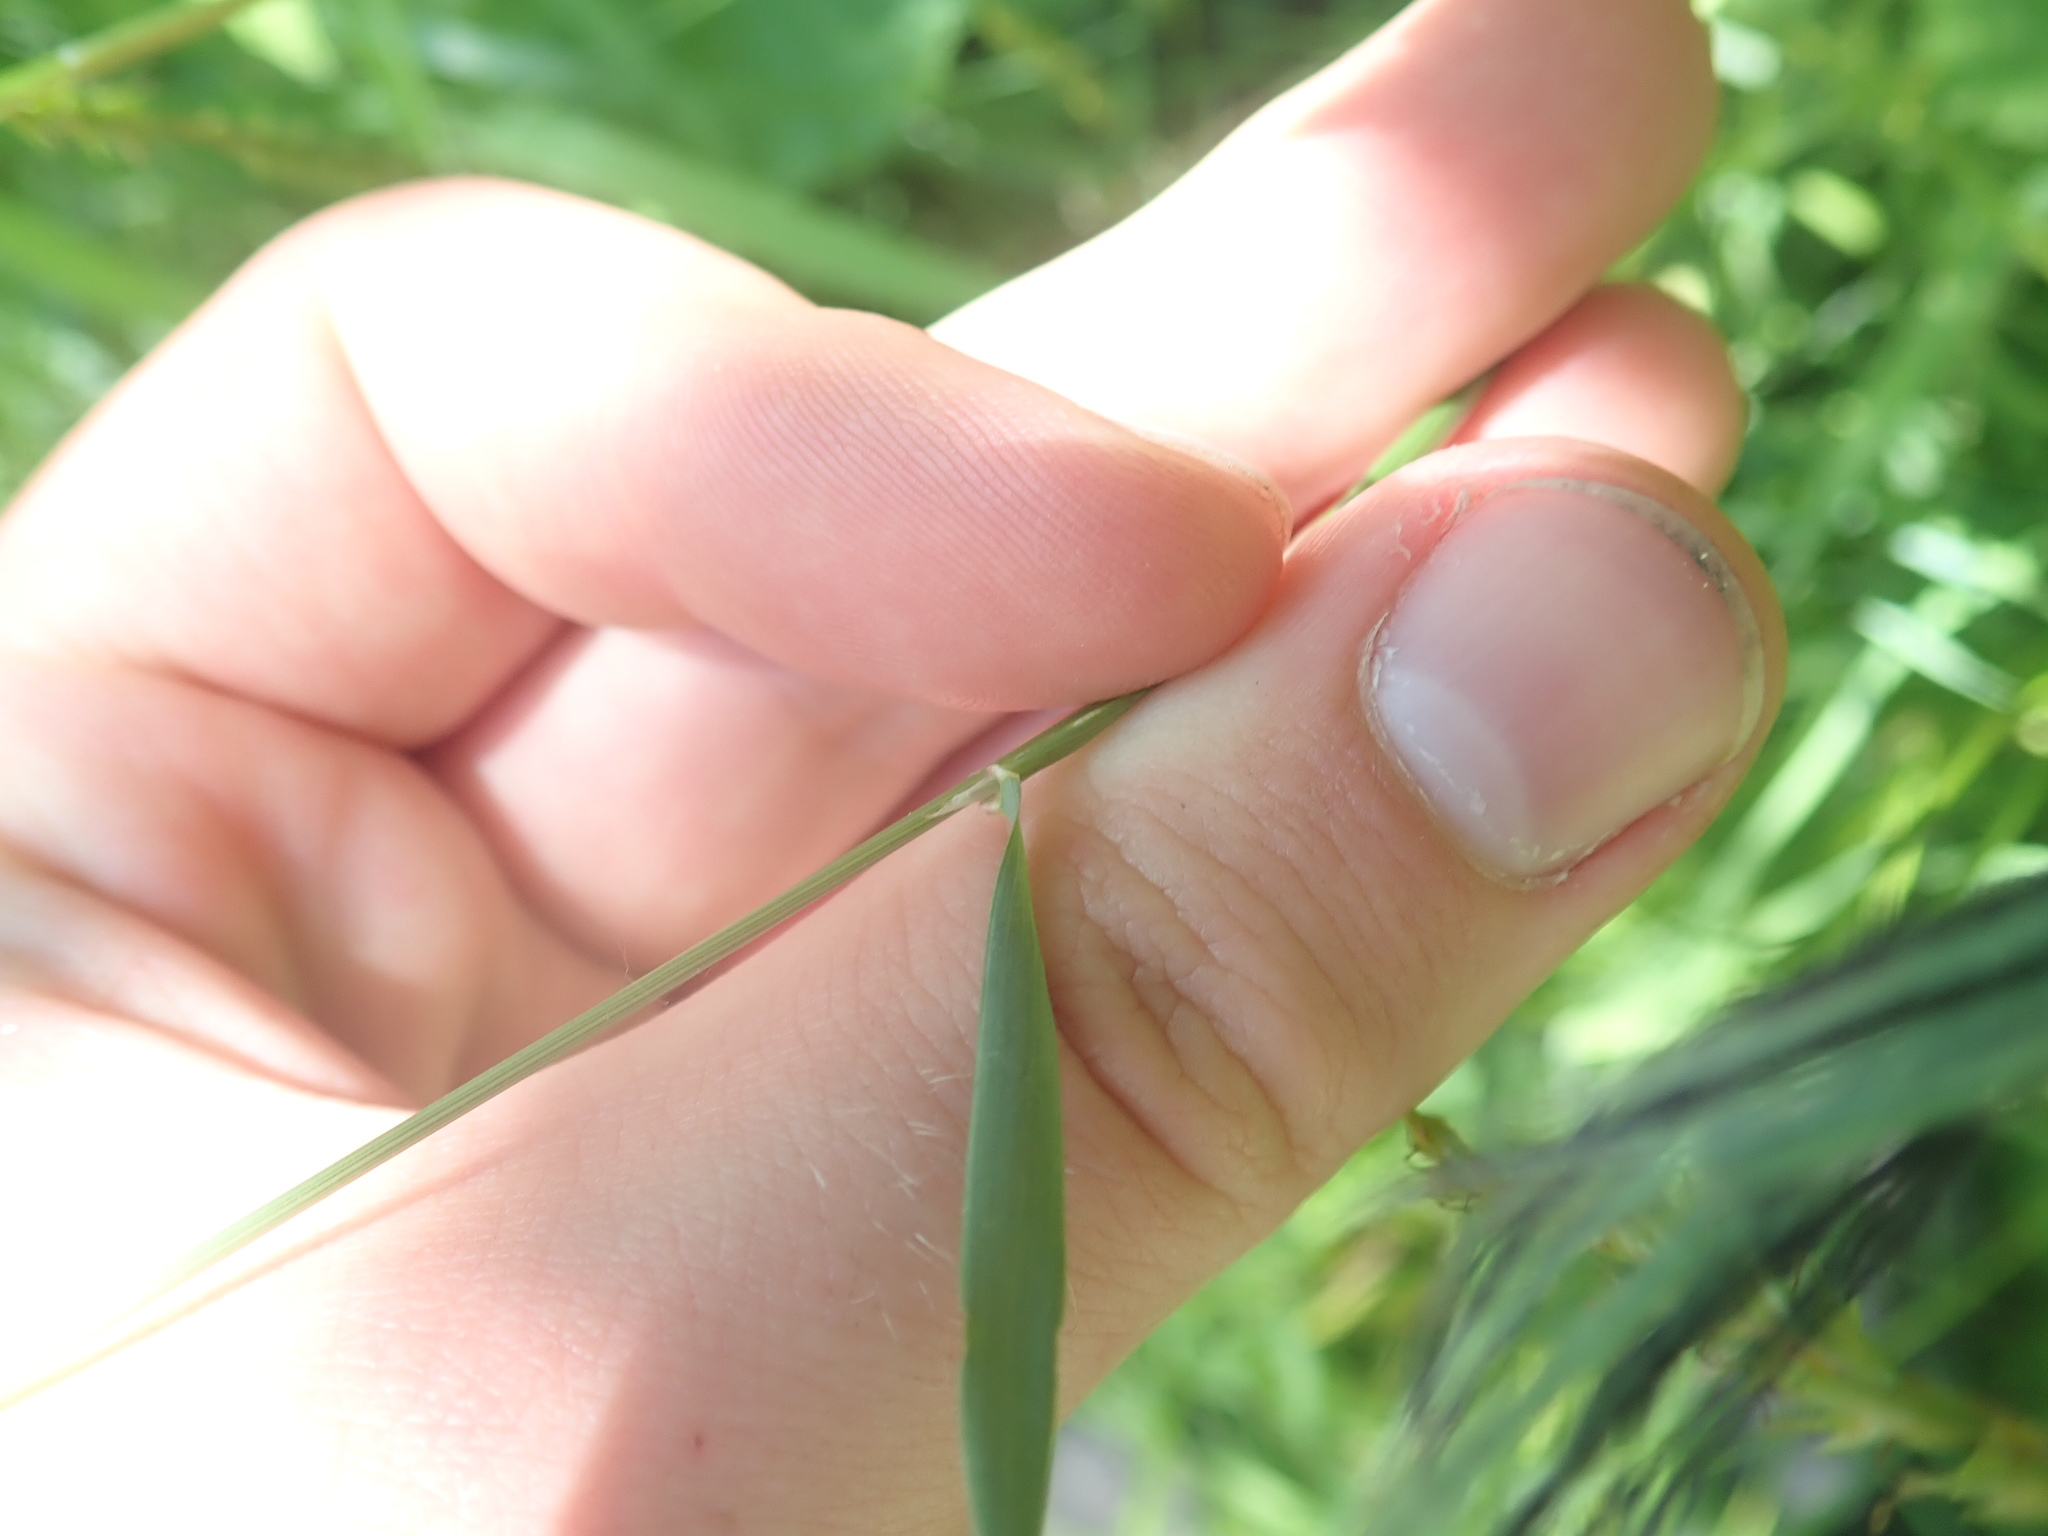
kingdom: Plantae
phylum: Tracheophyta
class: Liliopsida
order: Poales
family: Poaceae
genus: Anthoxanthum
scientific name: Anthoxanthum odoratum
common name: Sweet vernalgrass
